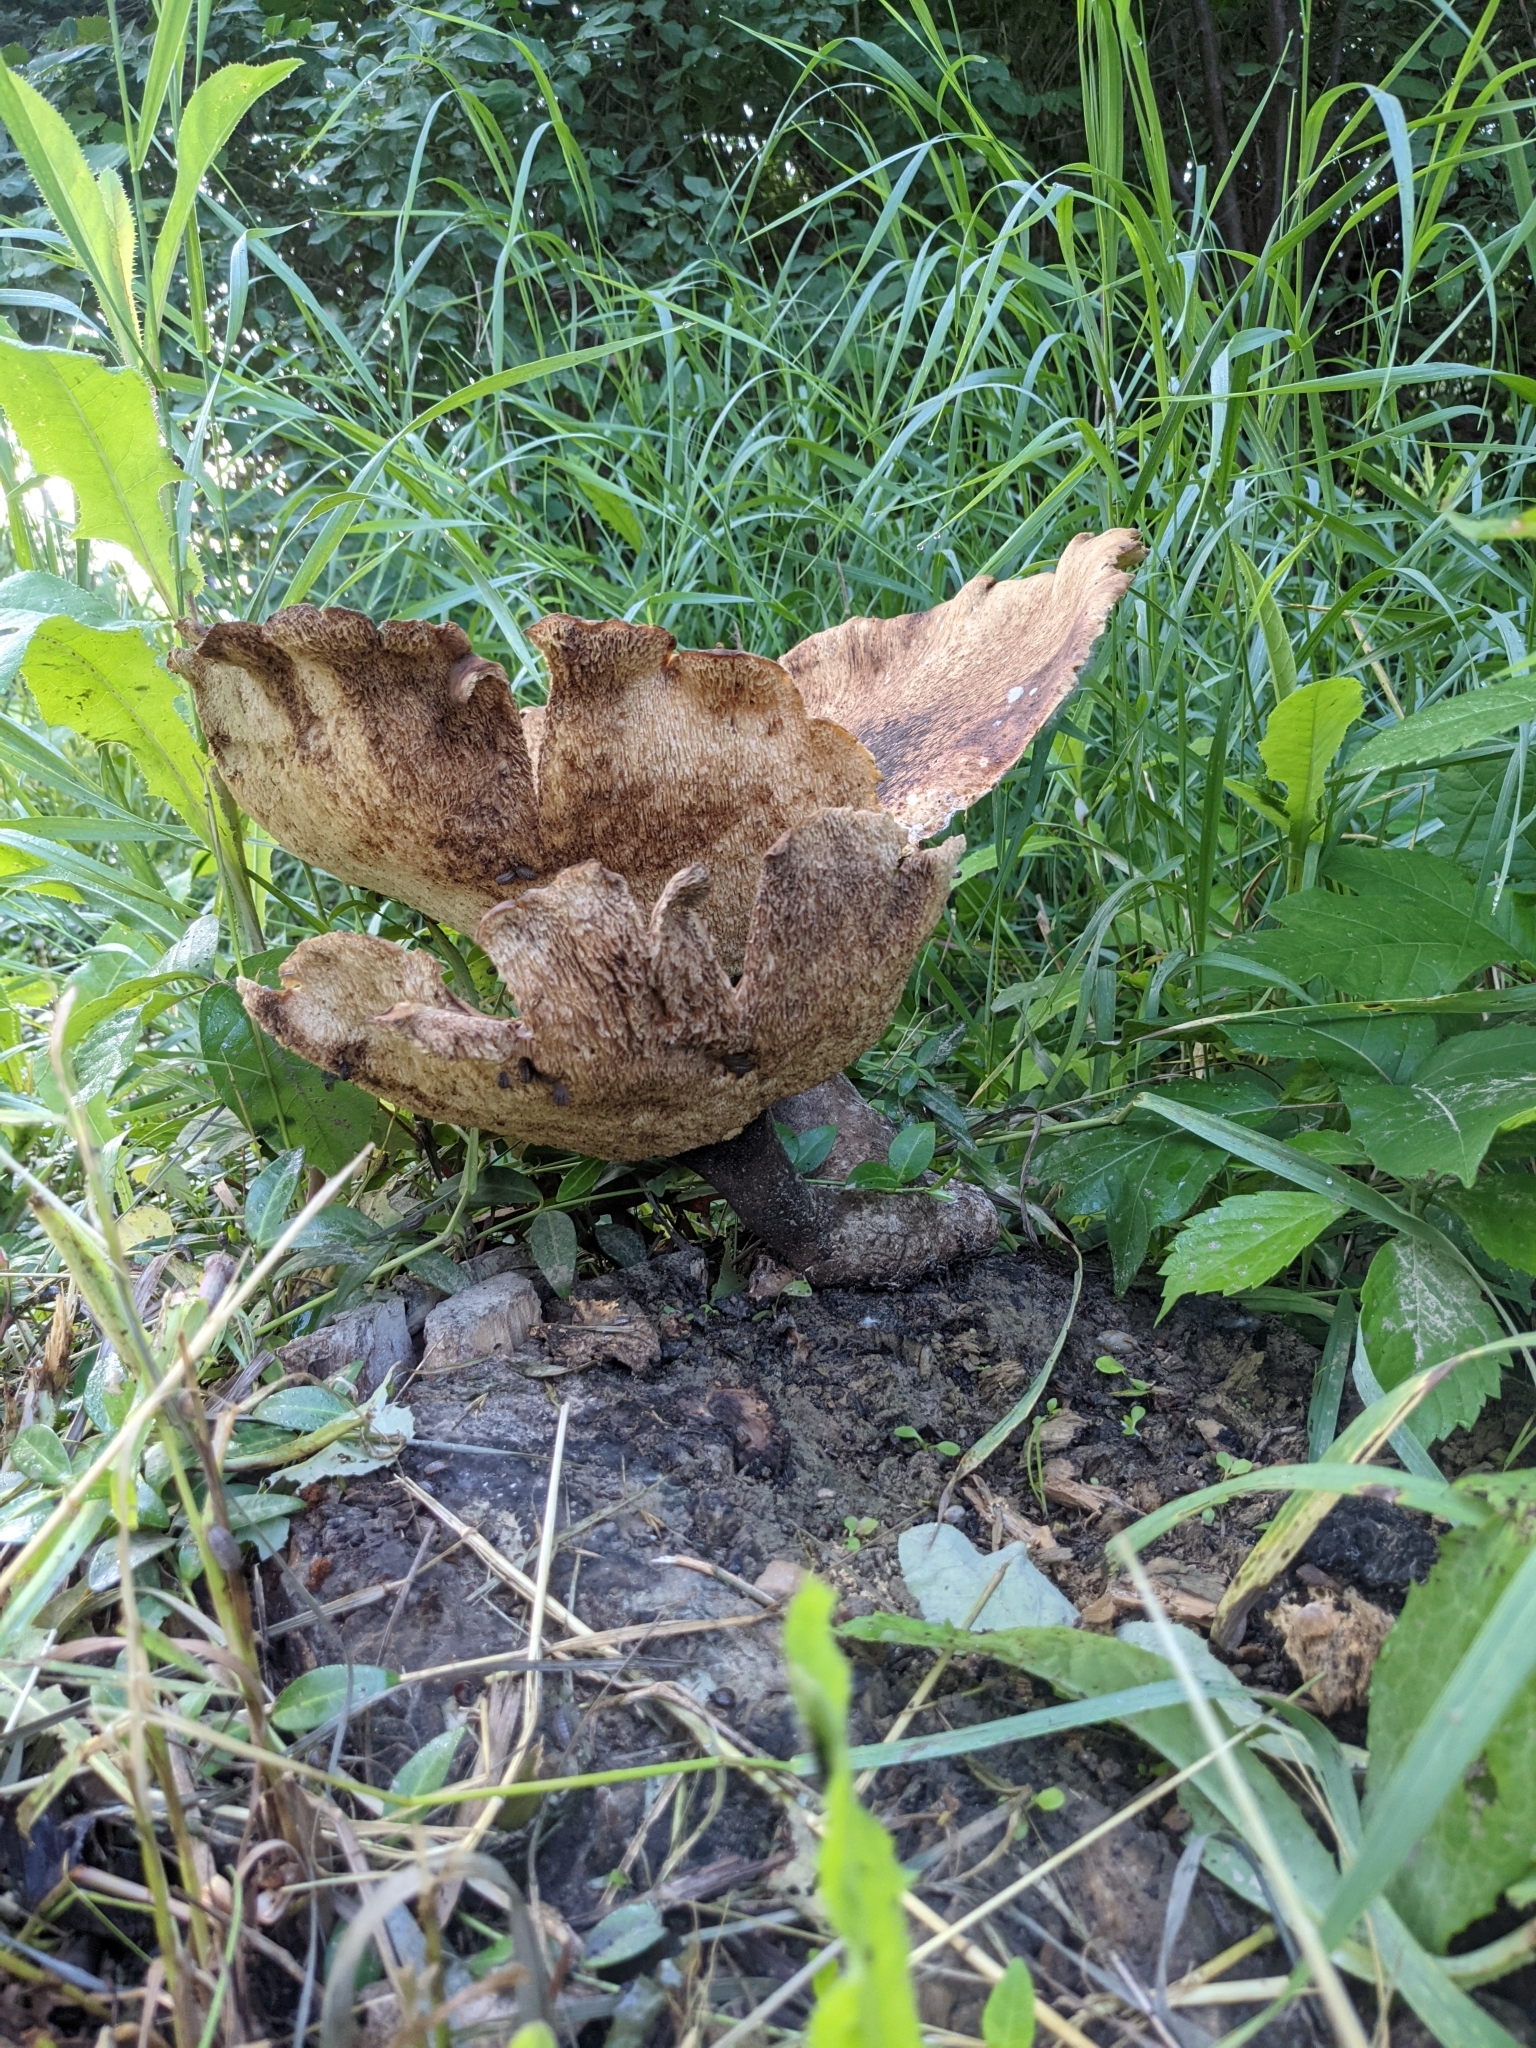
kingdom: Fungi
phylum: Basidiomycota
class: Agaricomycetes
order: Polyporales
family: Polyporaceae
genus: Cerioporus
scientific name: Cerioporus squamosus
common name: Dryad's saddle
